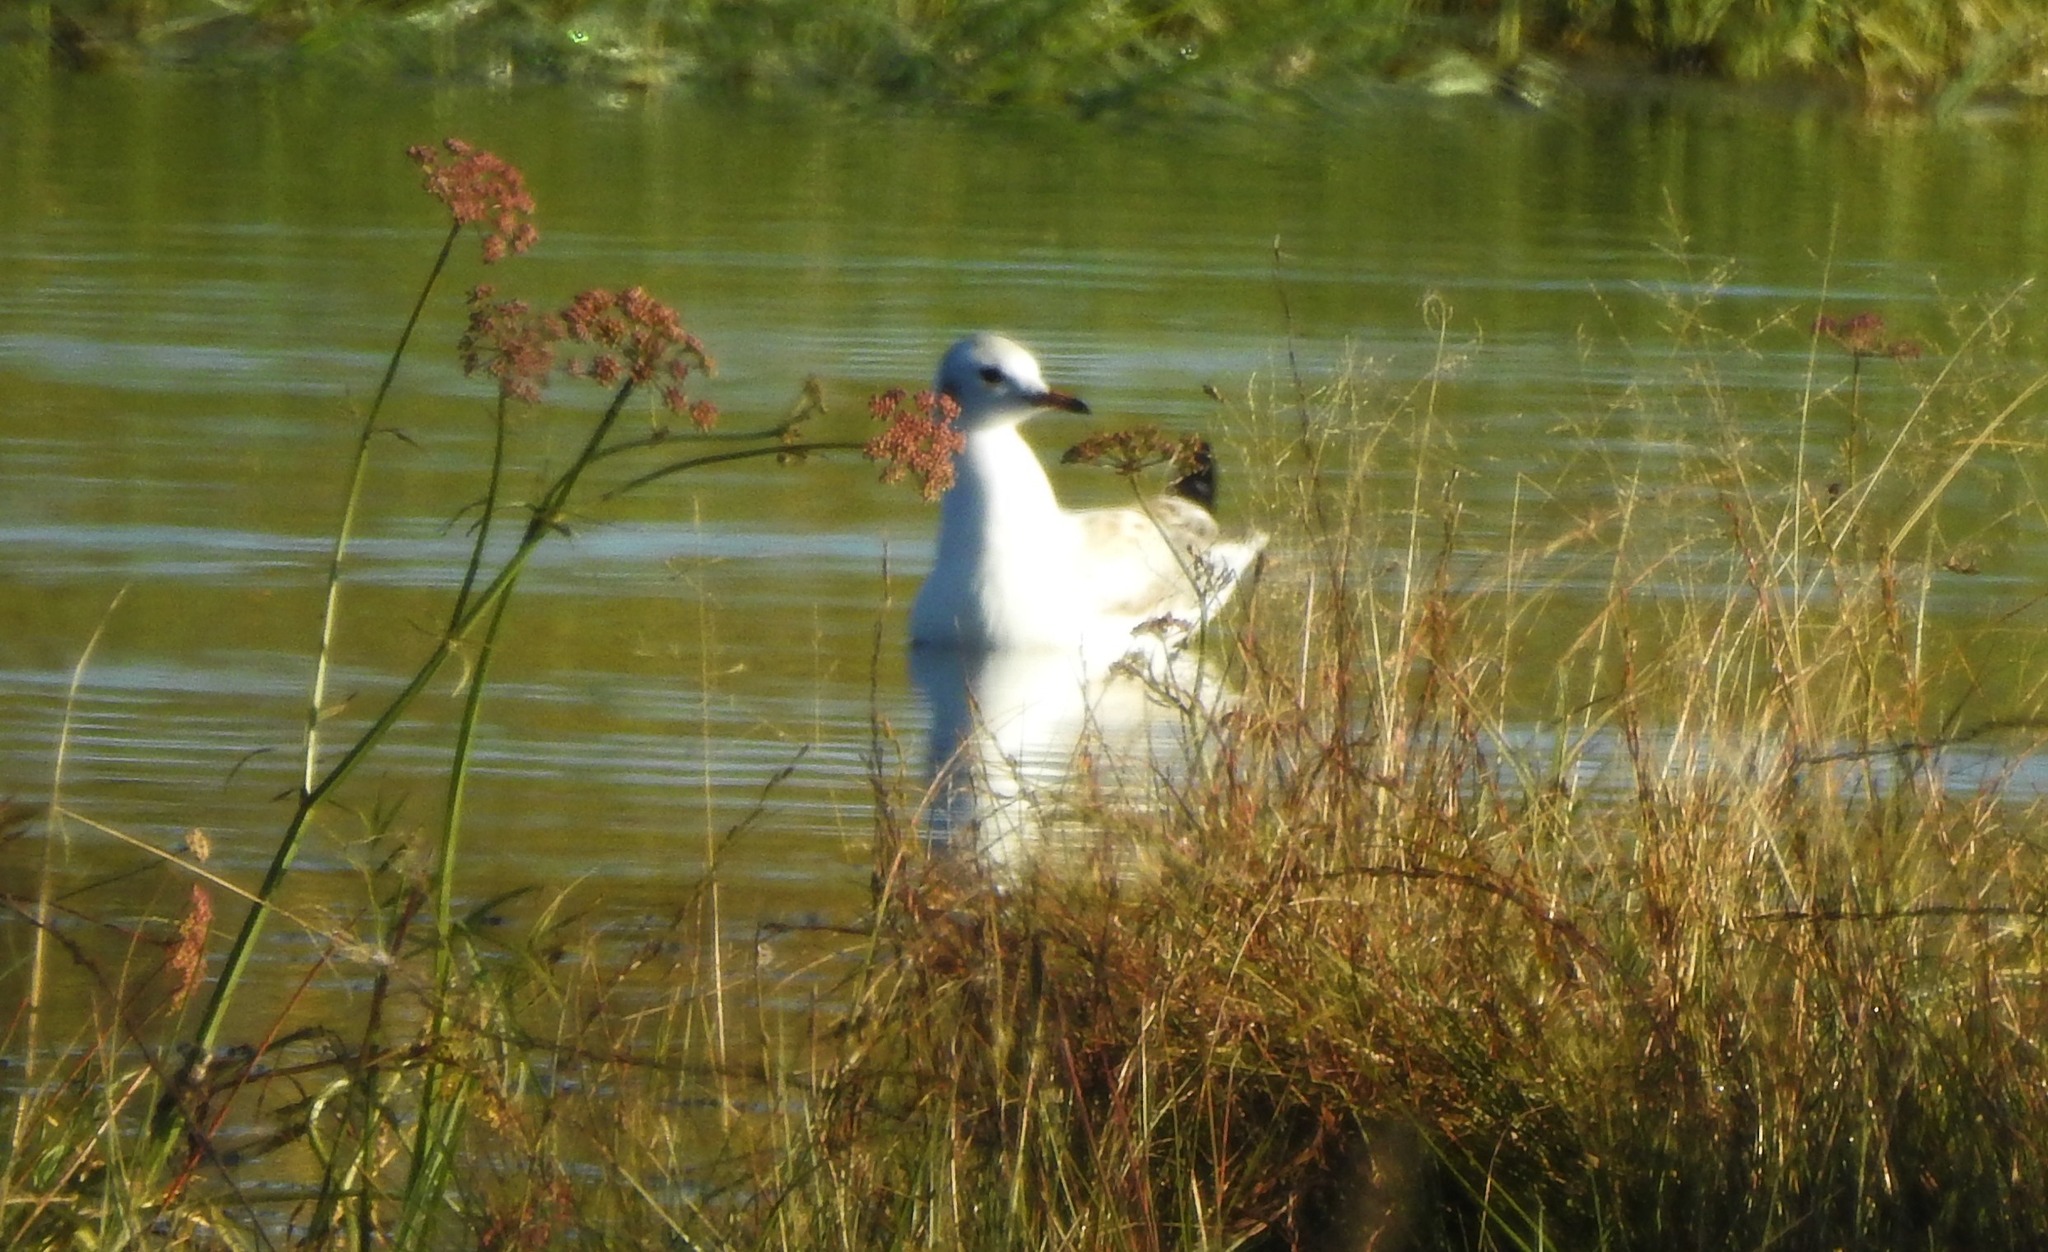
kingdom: Animalia
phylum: Chordata
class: Aves
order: Charadriiformes
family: Laridae
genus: Chroicocephalus
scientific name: Chroicocephalus ridibundus
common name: Black-headed gull
